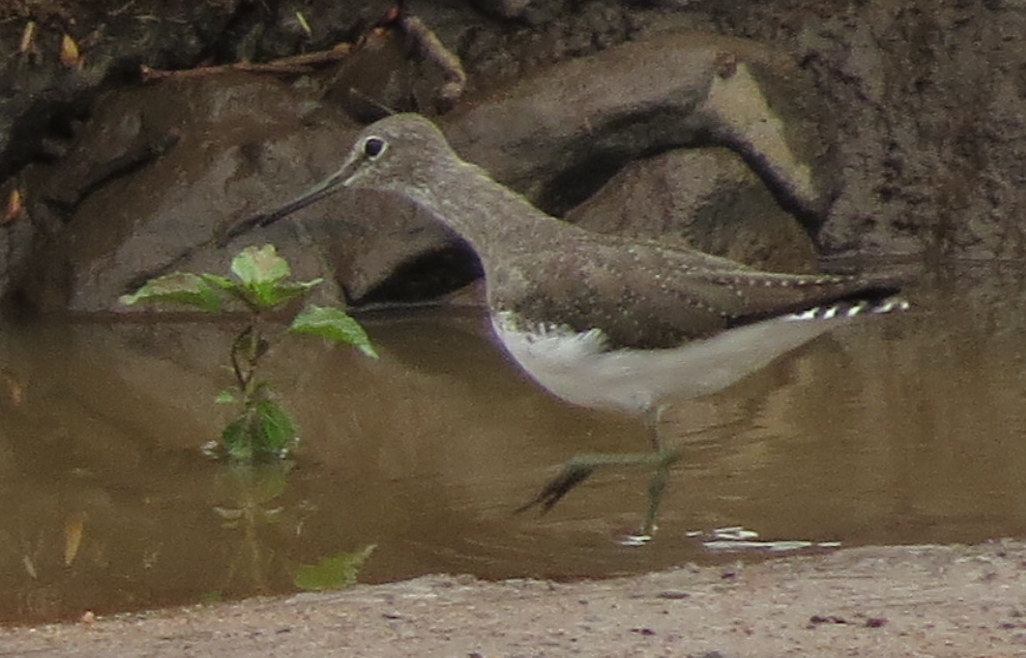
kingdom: Animalia
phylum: Chordata
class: Aves
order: Charadriiformes
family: Scolopacidae
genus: Tringa
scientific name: Tringa ochropus
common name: Green sandpiper
